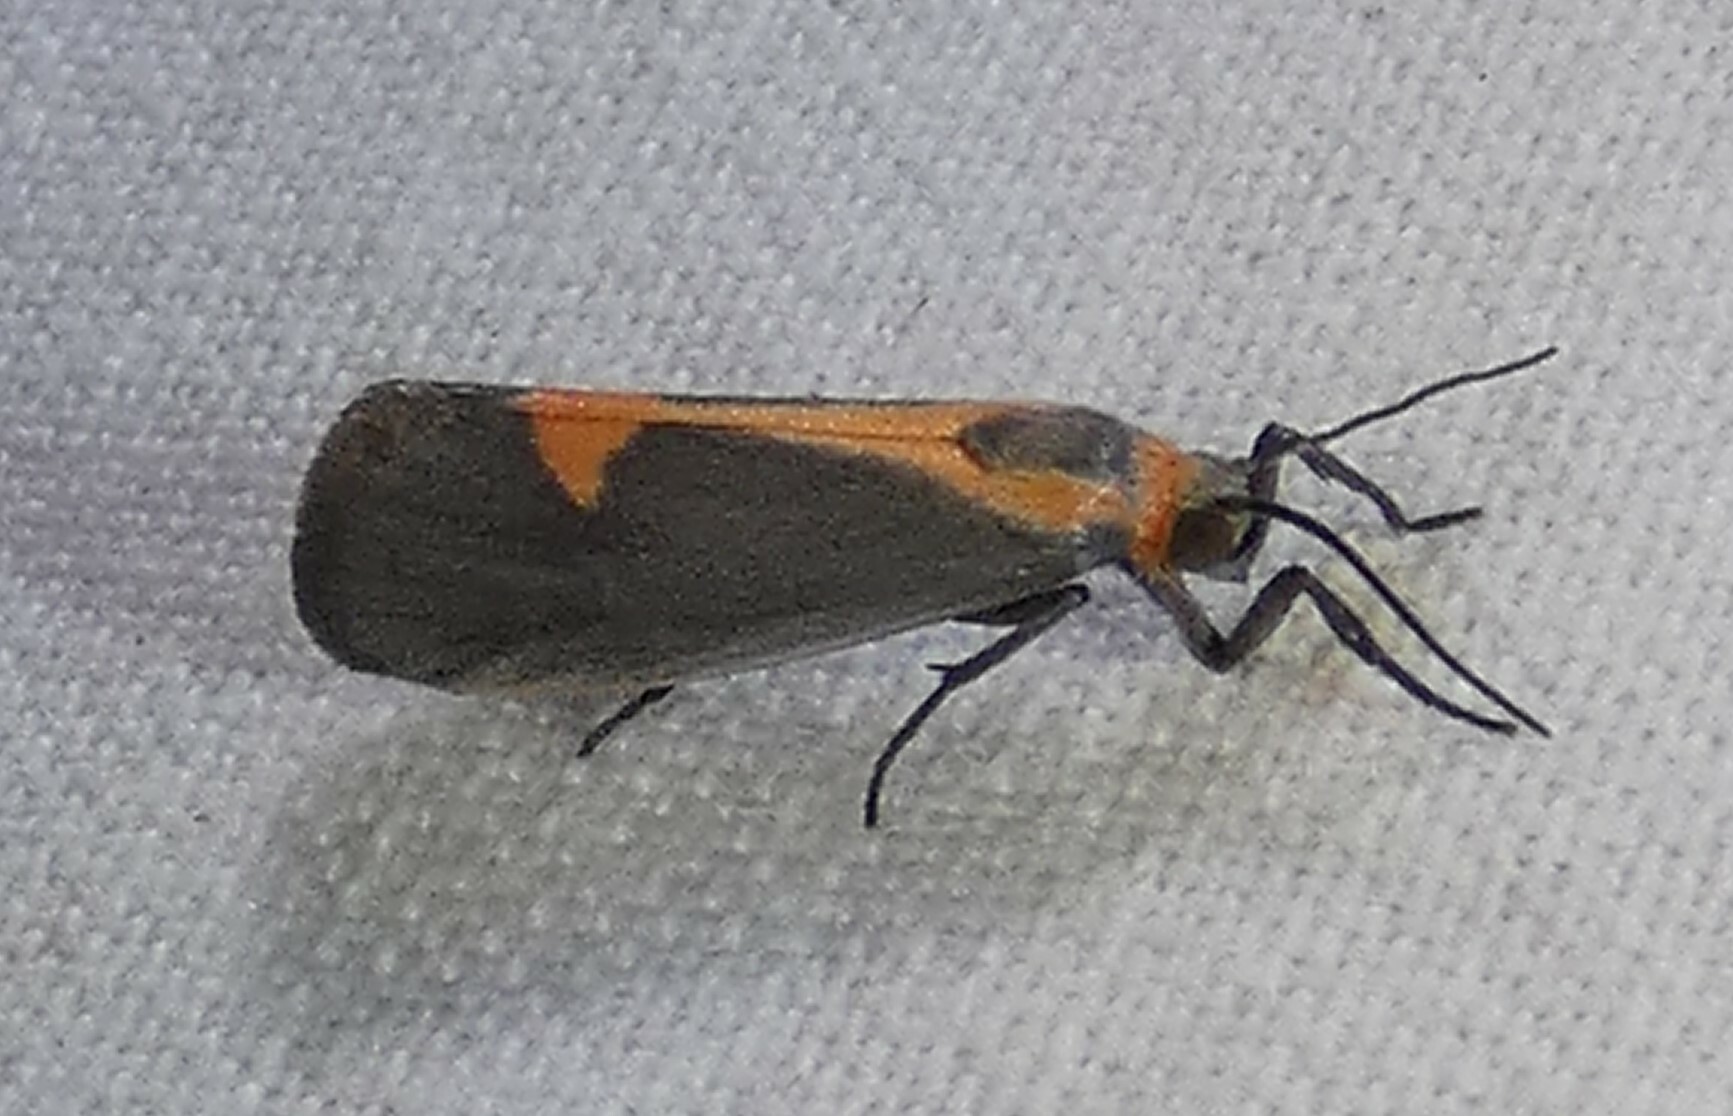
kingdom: Animalia
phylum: Arthropoda
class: Insecta
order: Lepidoptera
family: Erebidae
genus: Cisthene
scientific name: Cisthene plumbea
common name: Lead colored lichen moth
